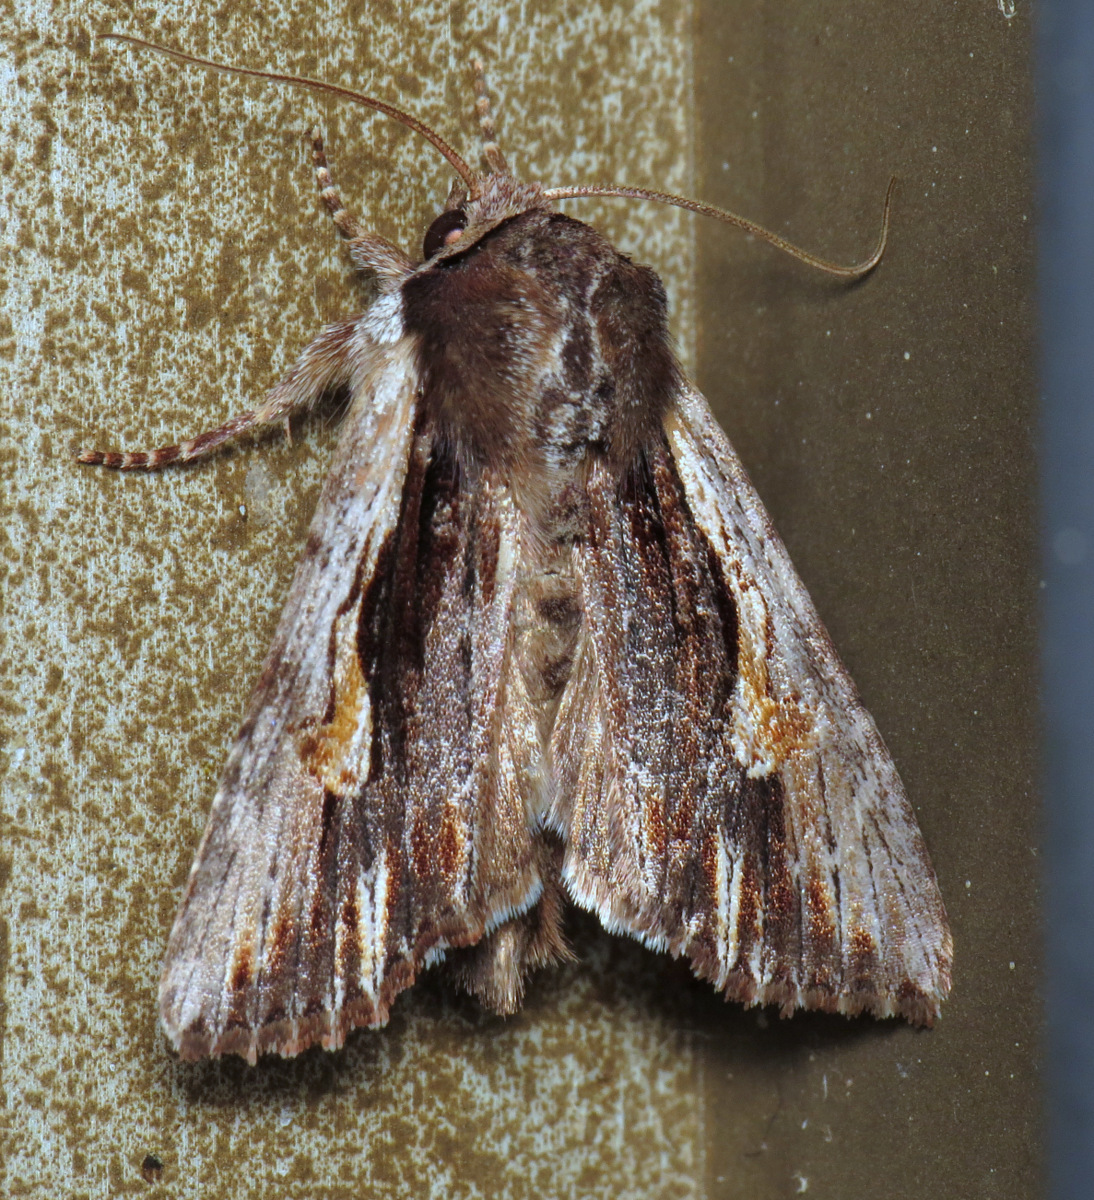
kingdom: Animalia
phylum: Arthropoda
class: Insecta
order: Lepidoptera
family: Noctuidae
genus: Achatia
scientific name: Achatia evicta
